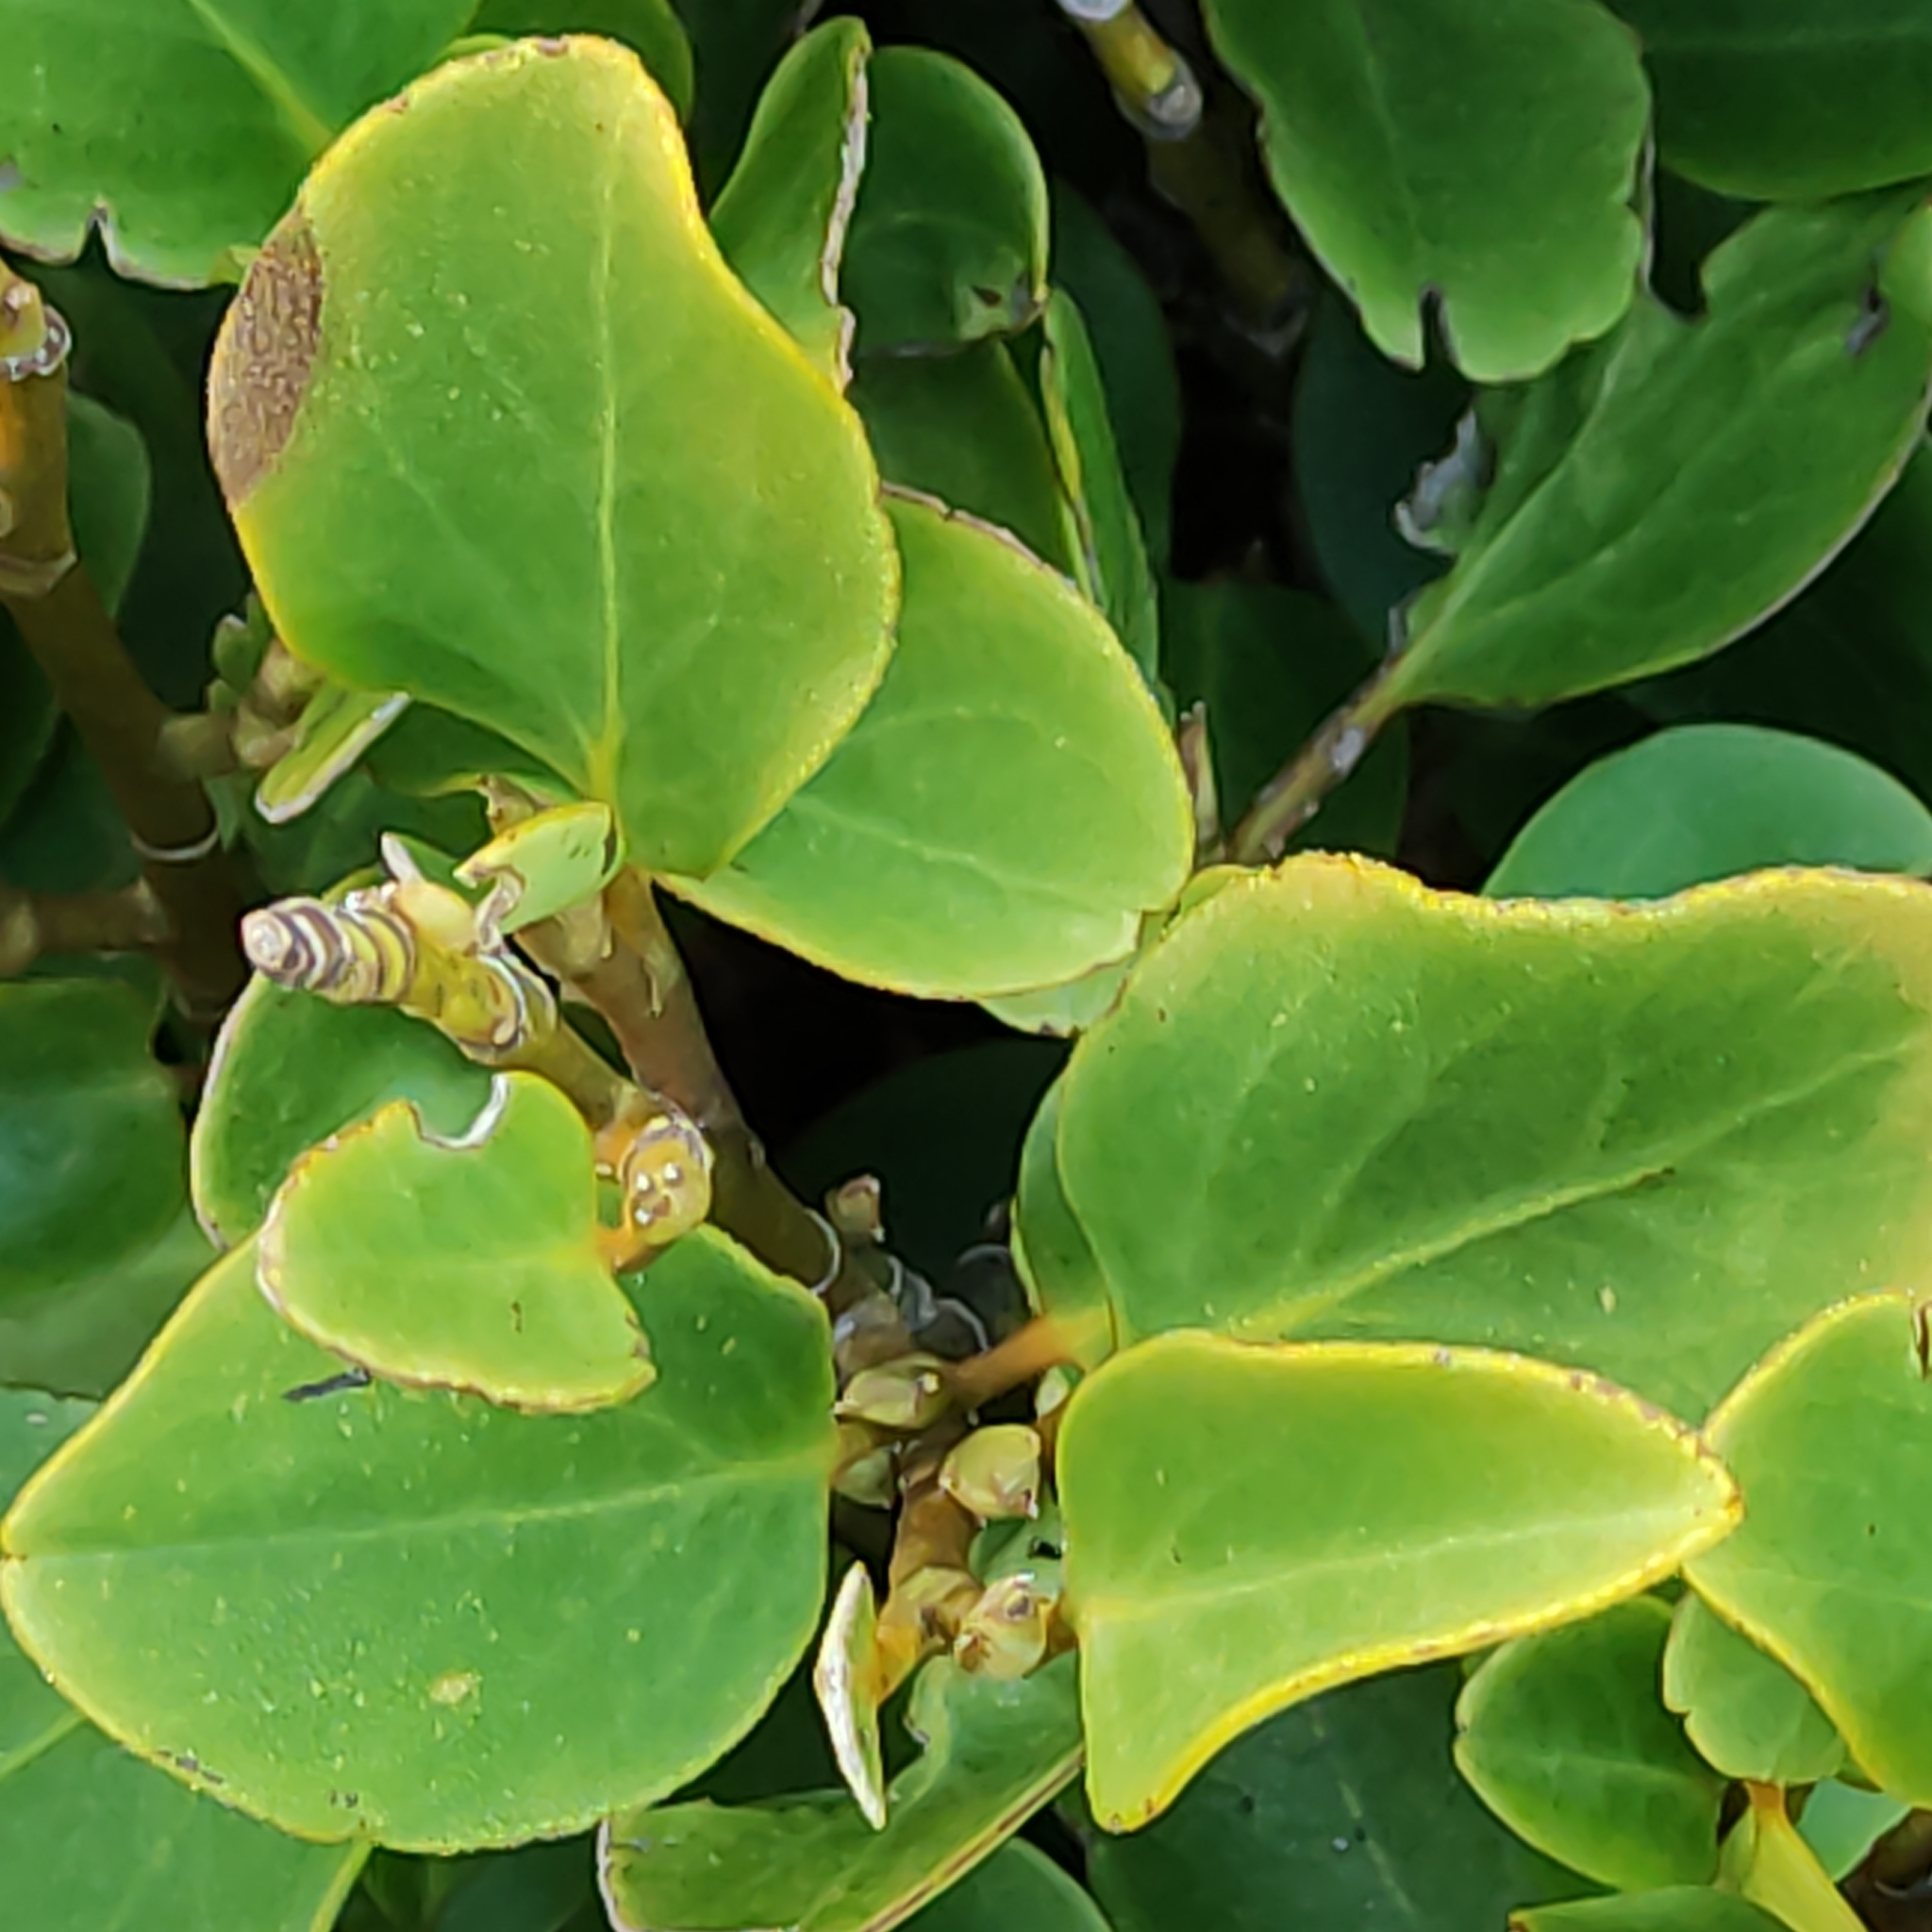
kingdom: Plantae
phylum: Tracheophyta
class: Magnoliopsida
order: Apiales
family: Griseliniaceae
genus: Griselinia
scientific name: Griselinia littoralis
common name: New zealand broadleaf
